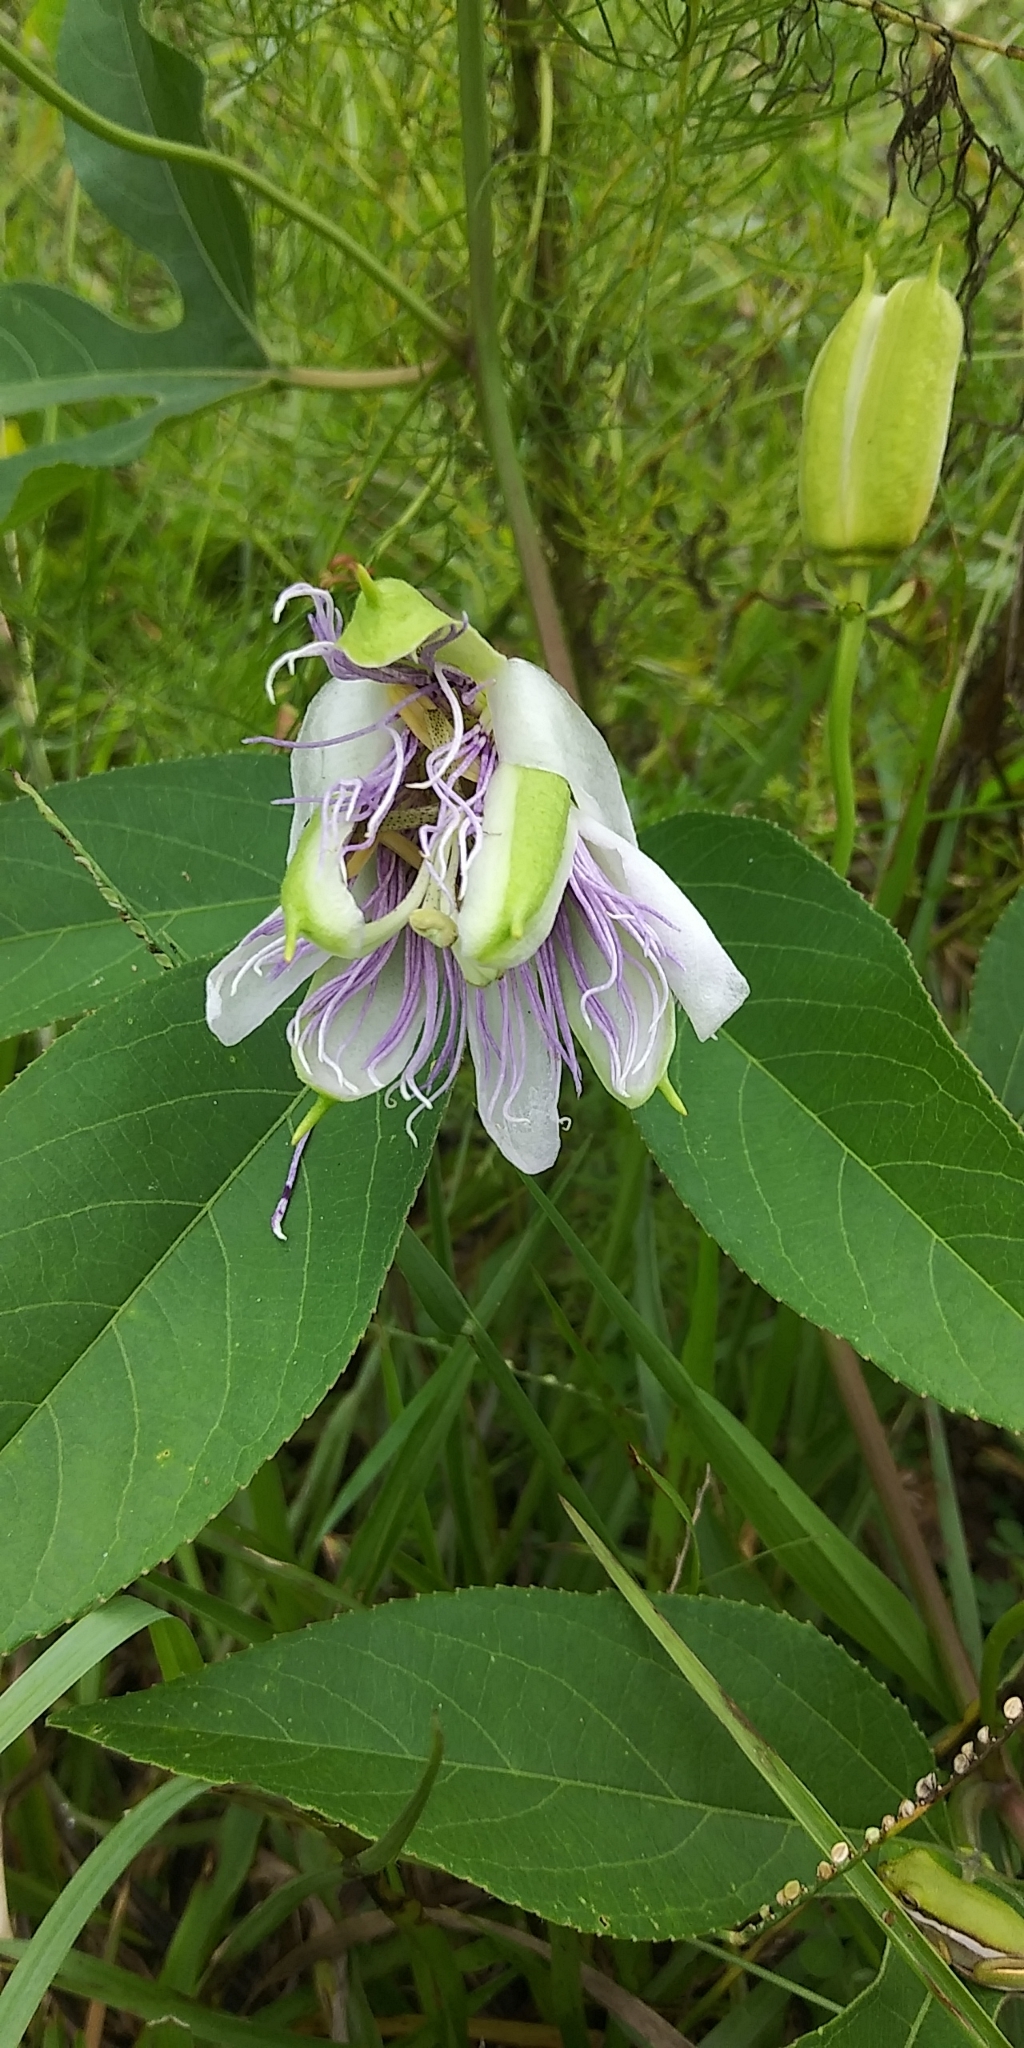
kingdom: Plantae
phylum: Tracheophyta
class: Magnoliopsida
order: Malpighiales
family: Passifloraceae
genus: Passiflora
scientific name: Passiflora incarnata
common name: Apricot-vine
